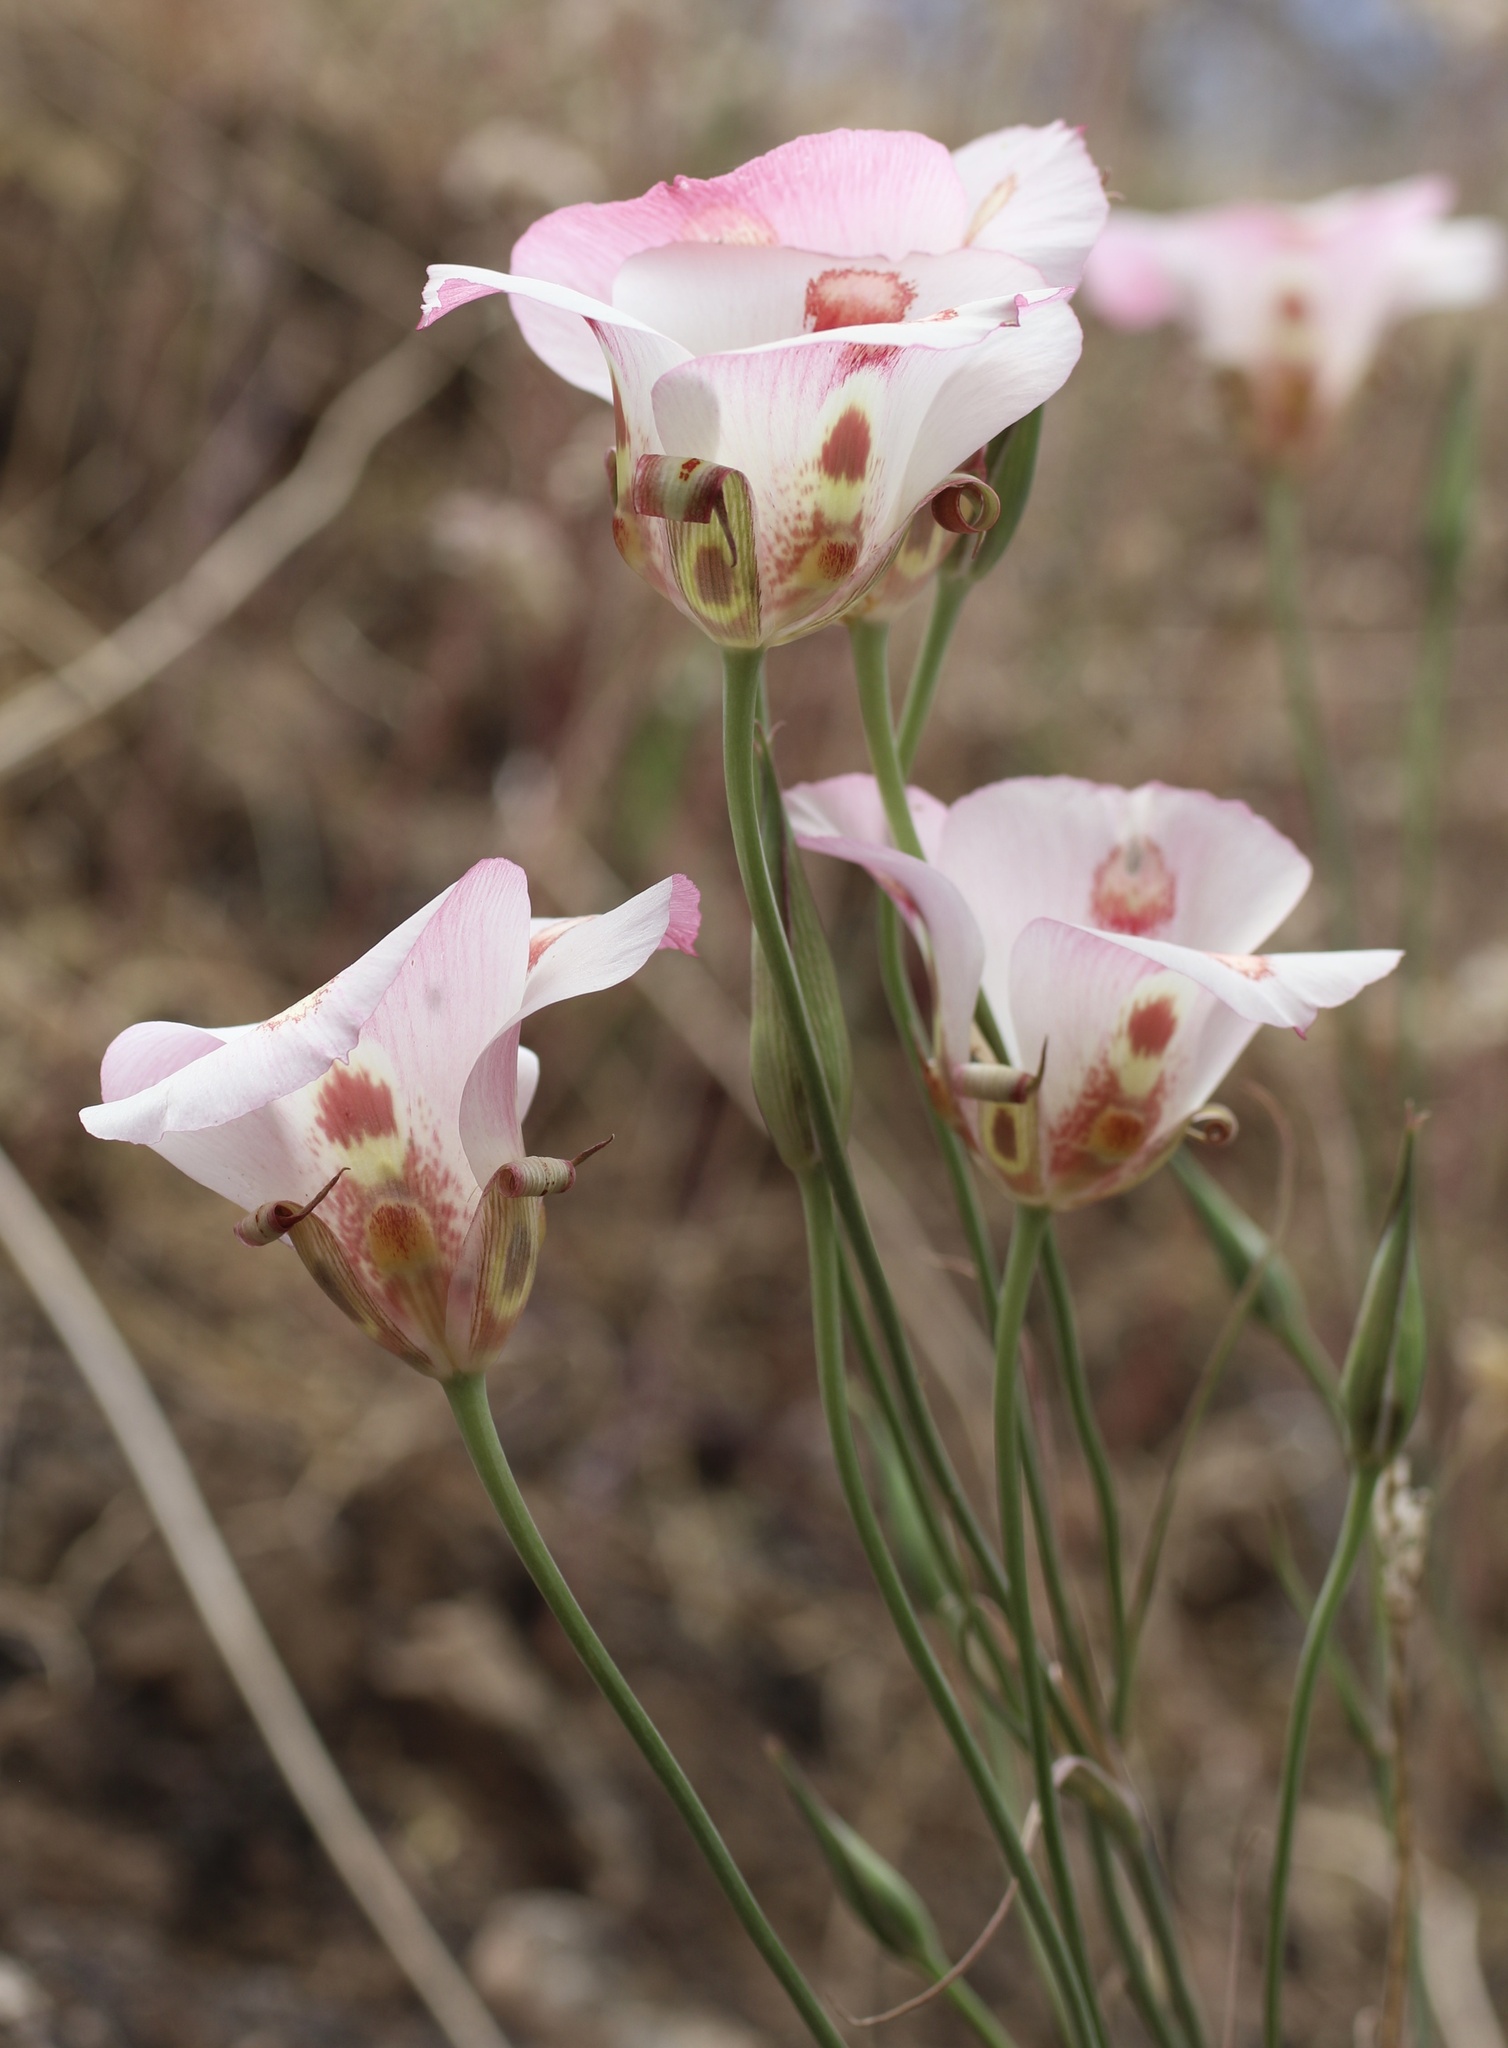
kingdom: Plantae
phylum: Tracheophyta
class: Liliopsida
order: Liliales
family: Liliaceae
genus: Calochortus
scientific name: Calochortus venustus
